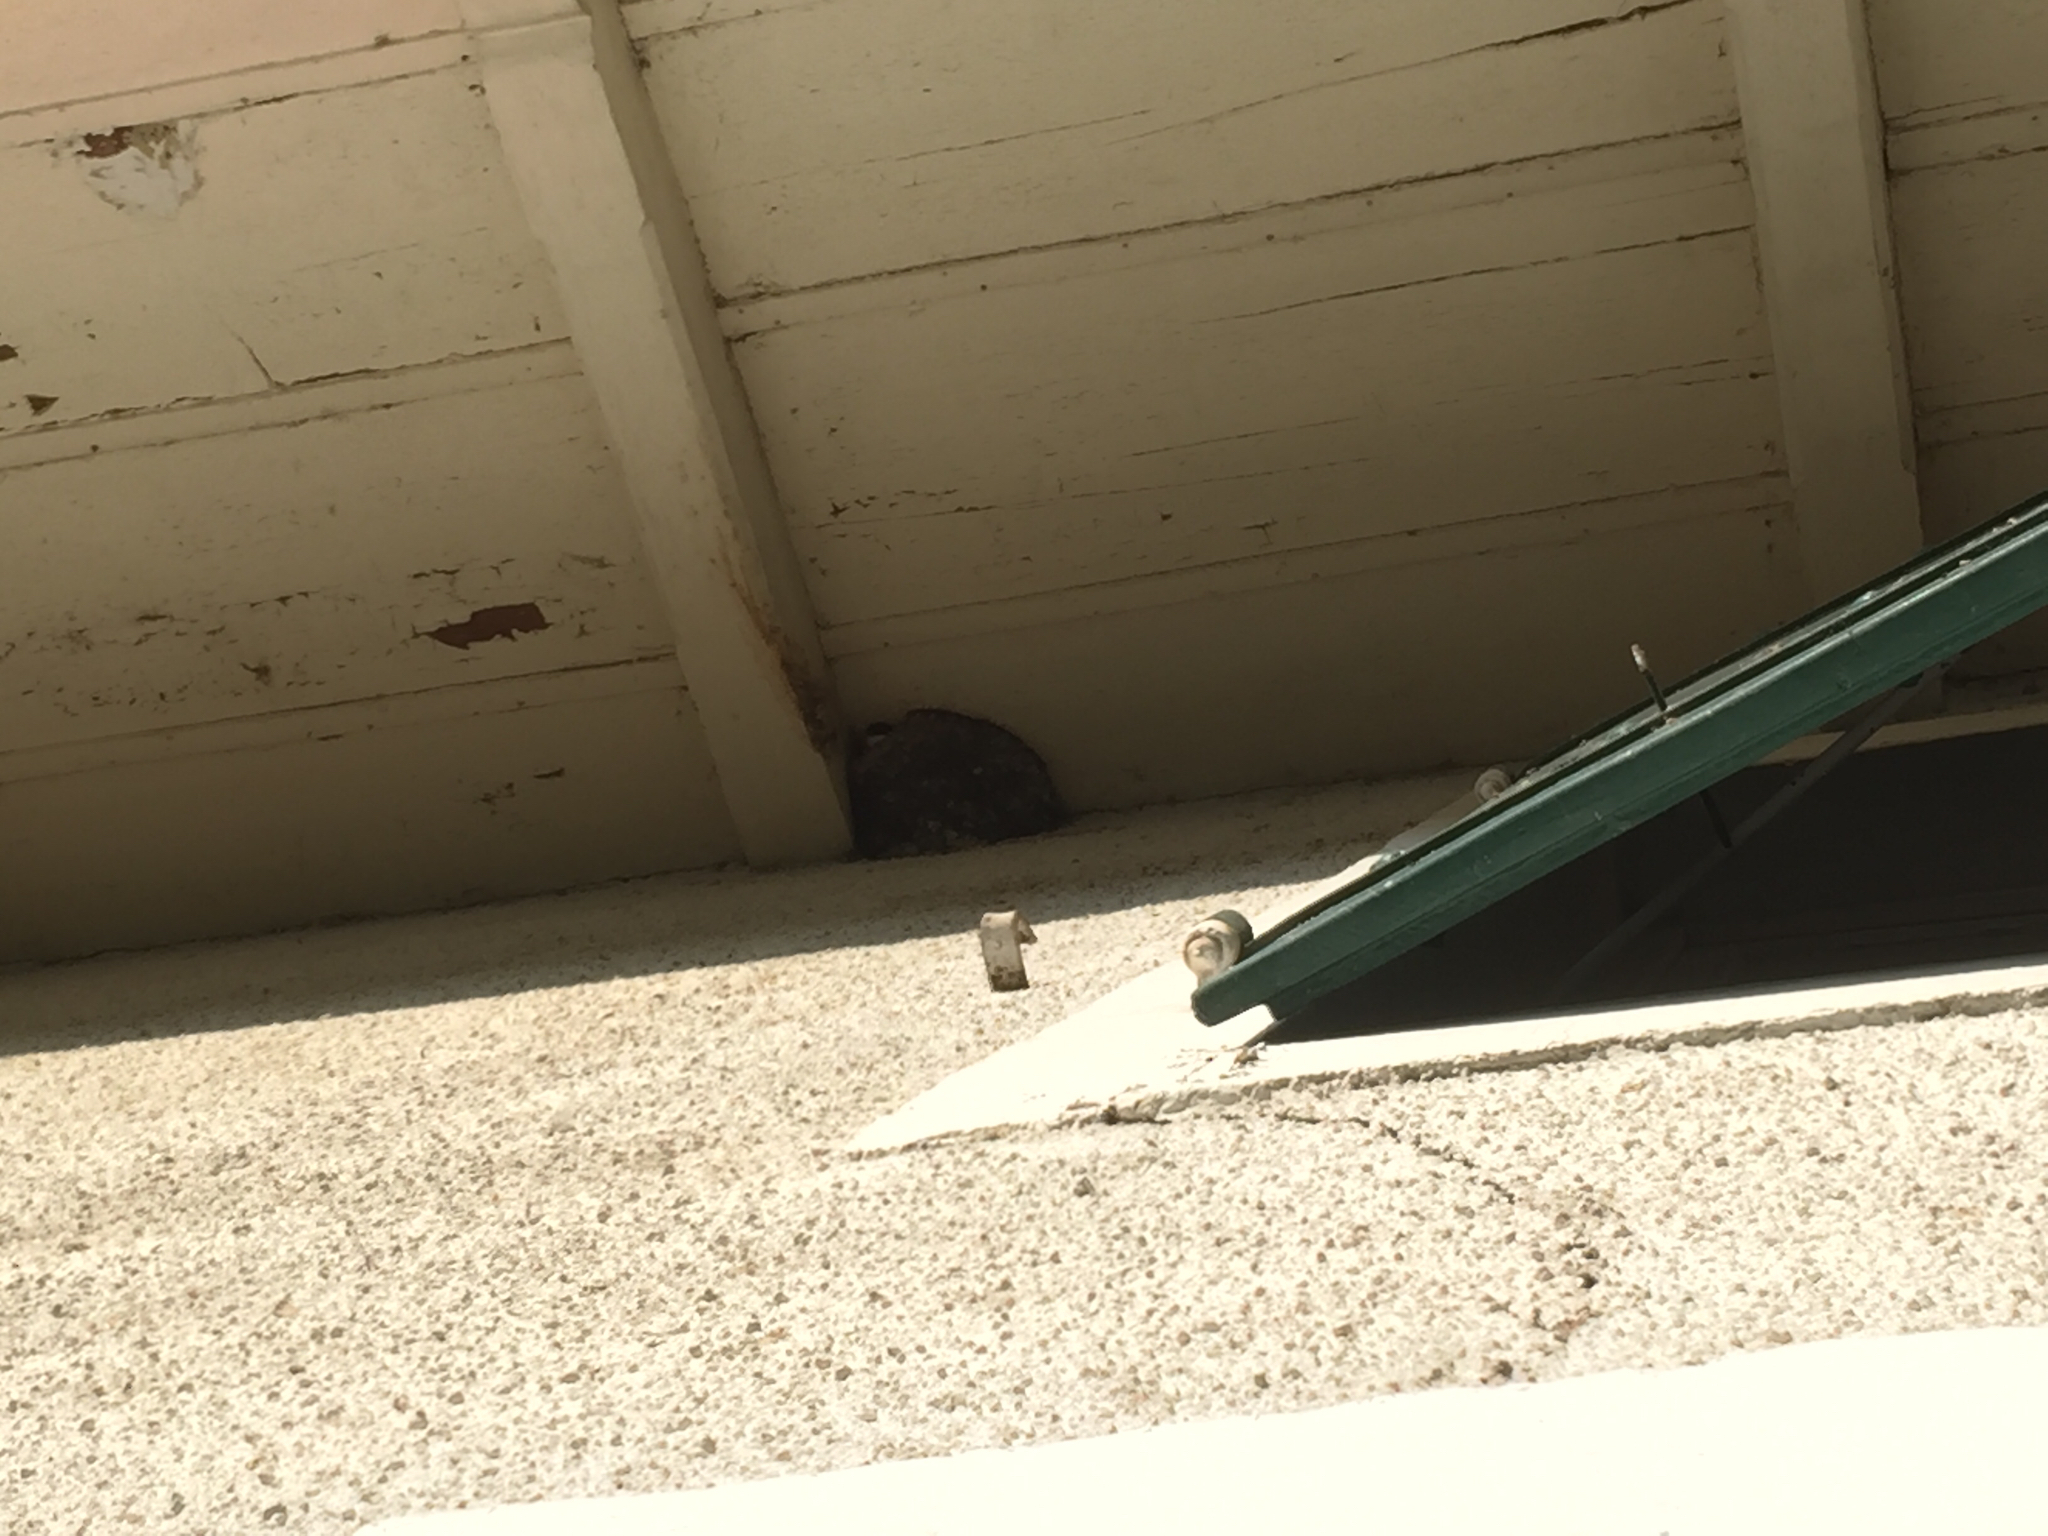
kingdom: Animalia
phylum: Chordata
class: Aves
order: Passeriformes
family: Hirundinidae
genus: Delichon
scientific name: Delichon urbicum
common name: Common house martin
